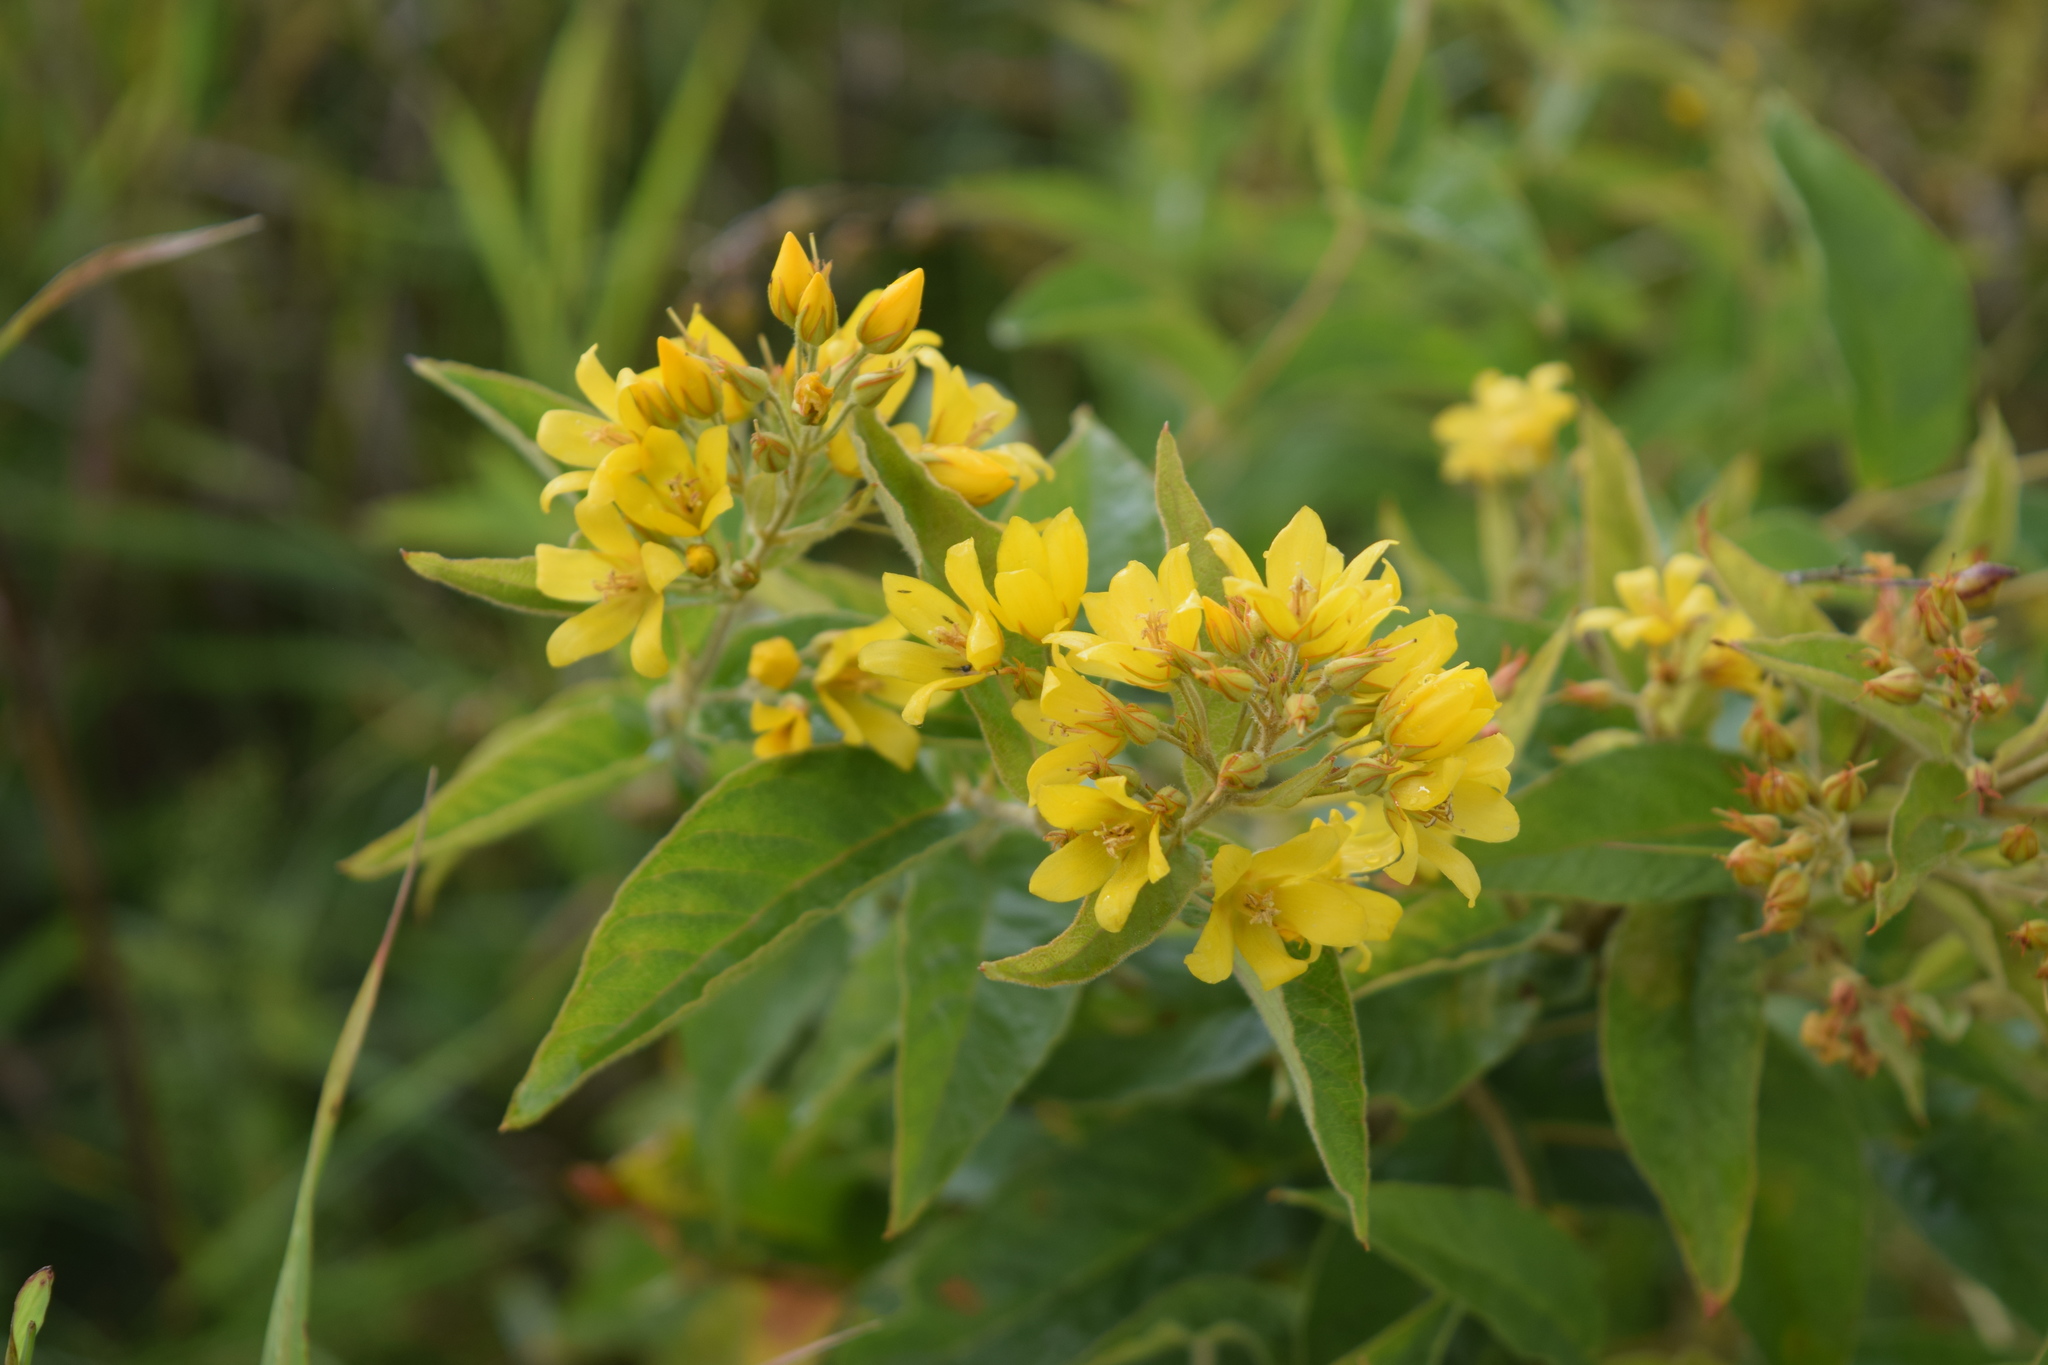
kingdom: Plantae
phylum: Tracheophyta
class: Magnoliopsida
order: Ericales
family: Primulaceae
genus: Lysimachia
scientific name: Lysimachia vulgaris
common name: Yellow loosestrife
